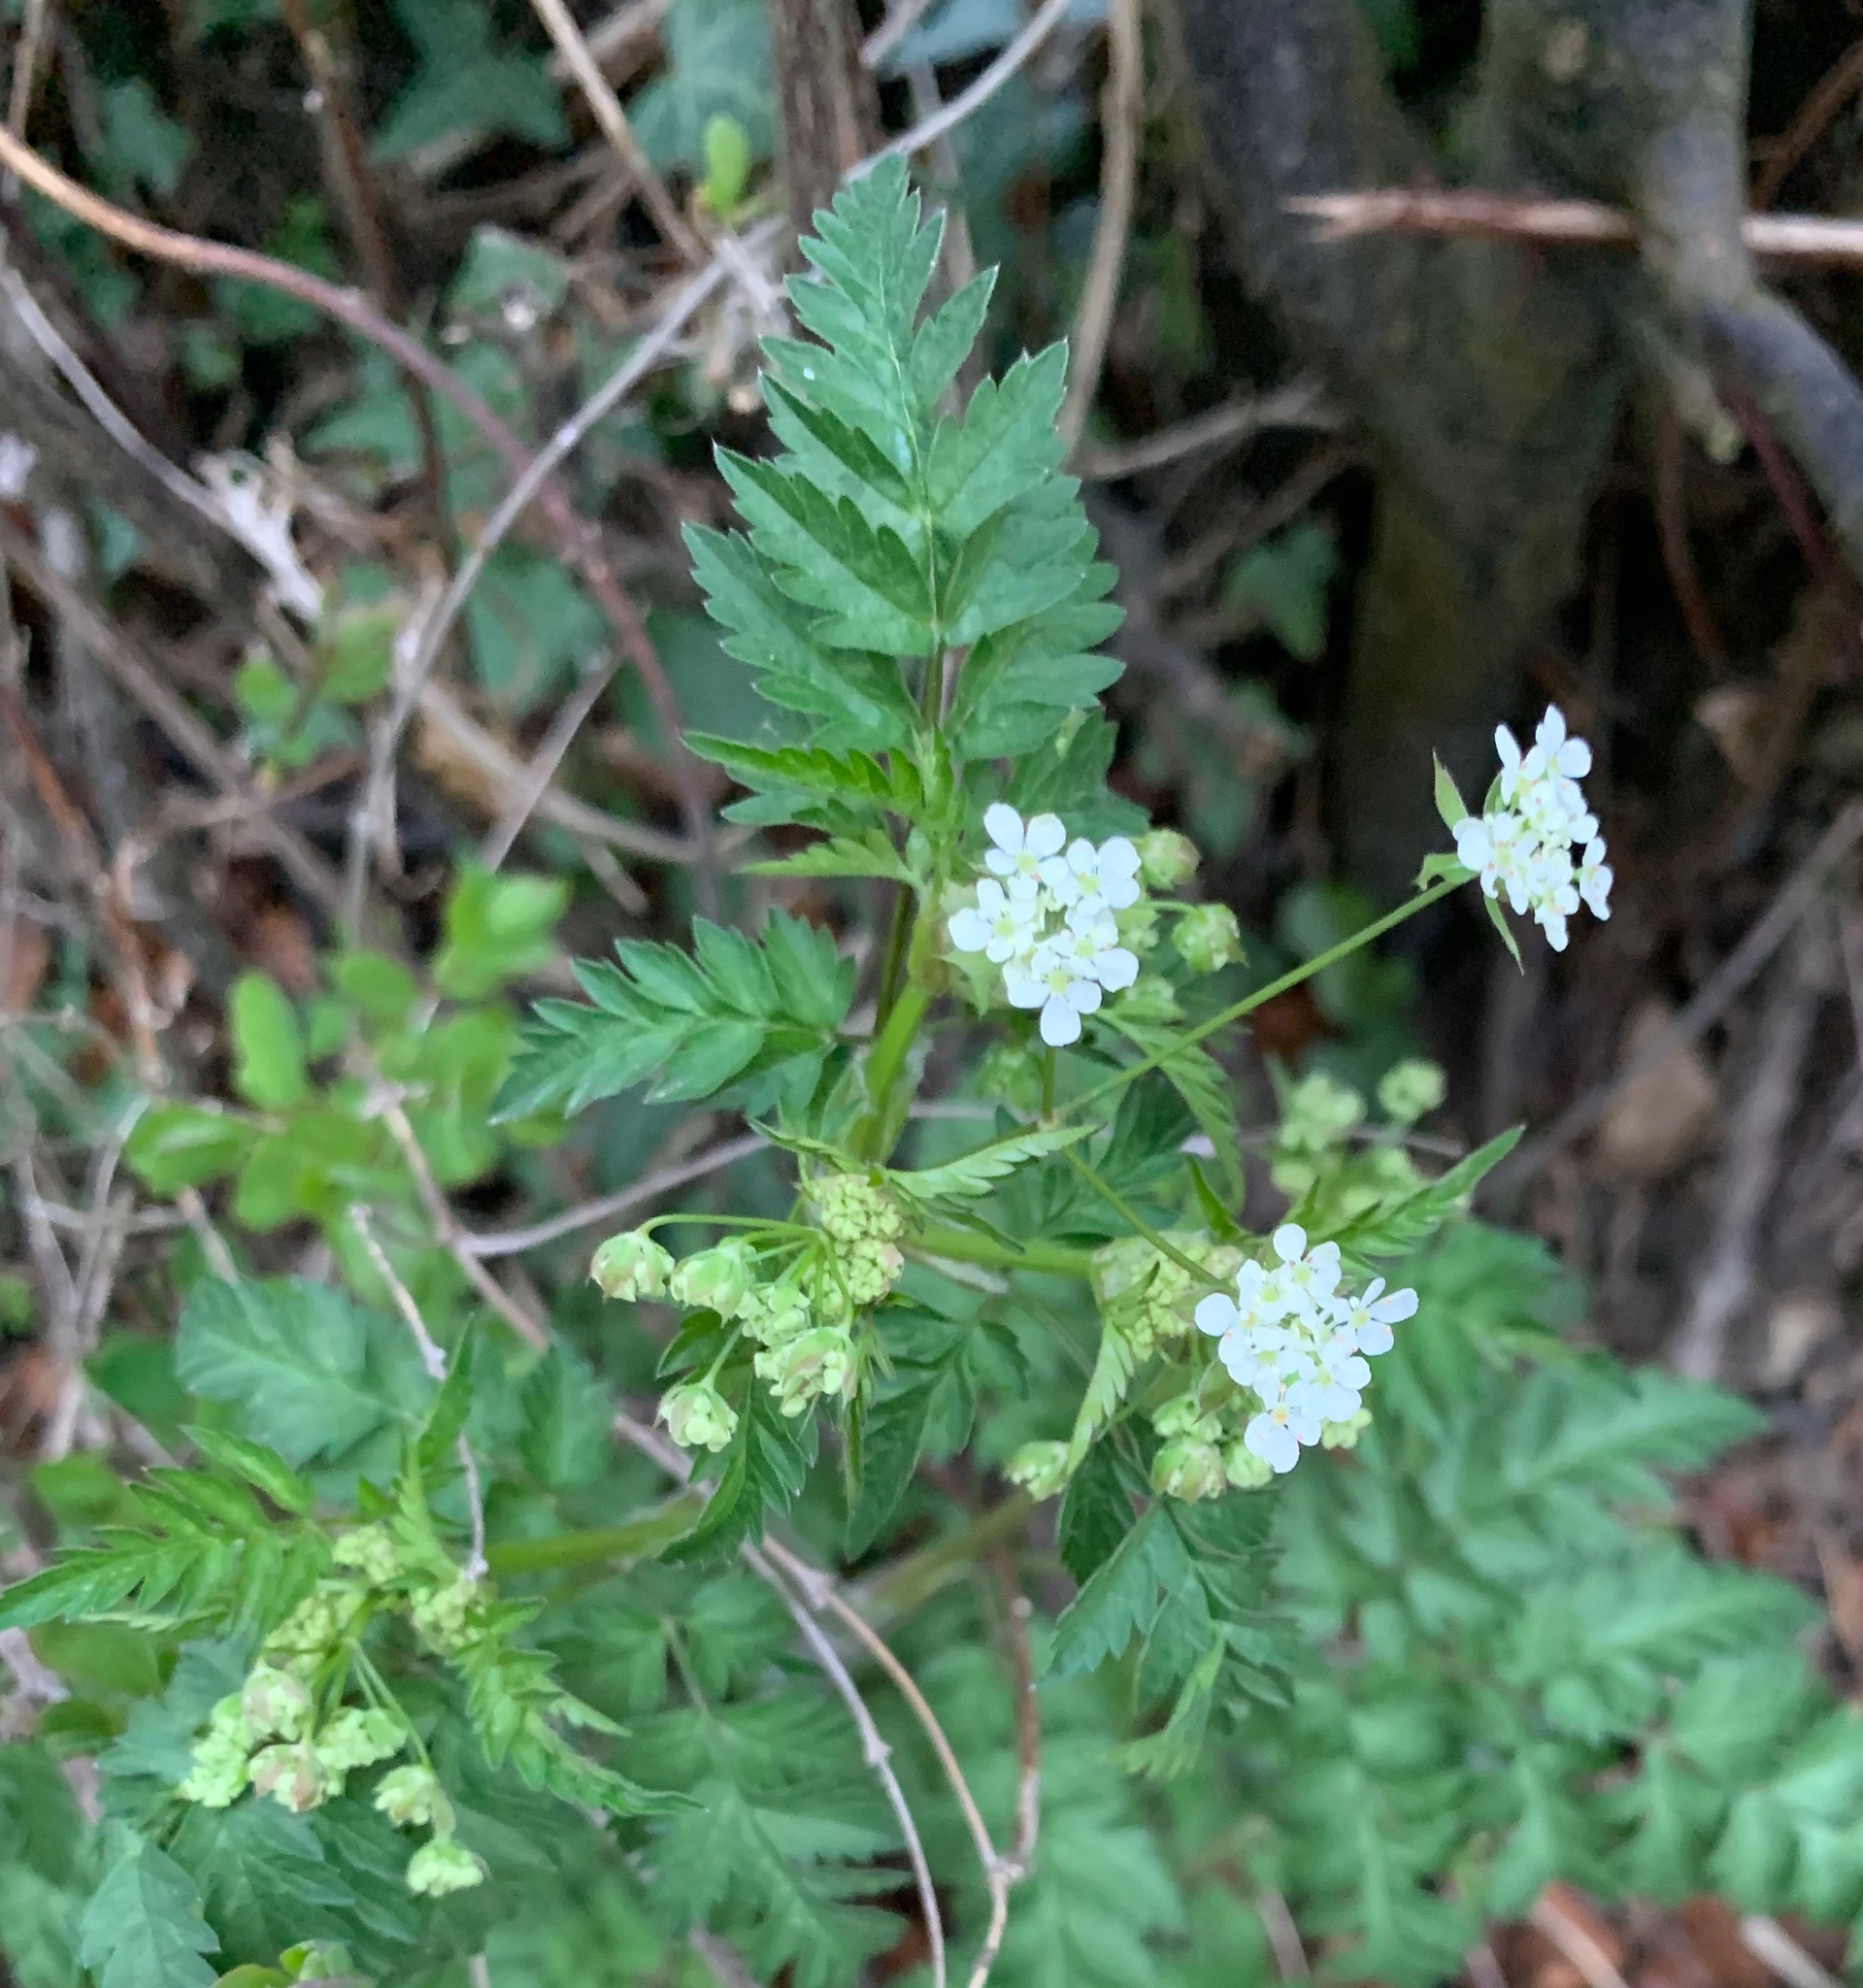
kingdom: Plantae
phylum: Tracheophyta
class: Magnoliopsida
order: Apiales
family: Apiaceae
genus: Anthriscus
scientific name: Anthriscus sylvestris
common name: Cow parsley
